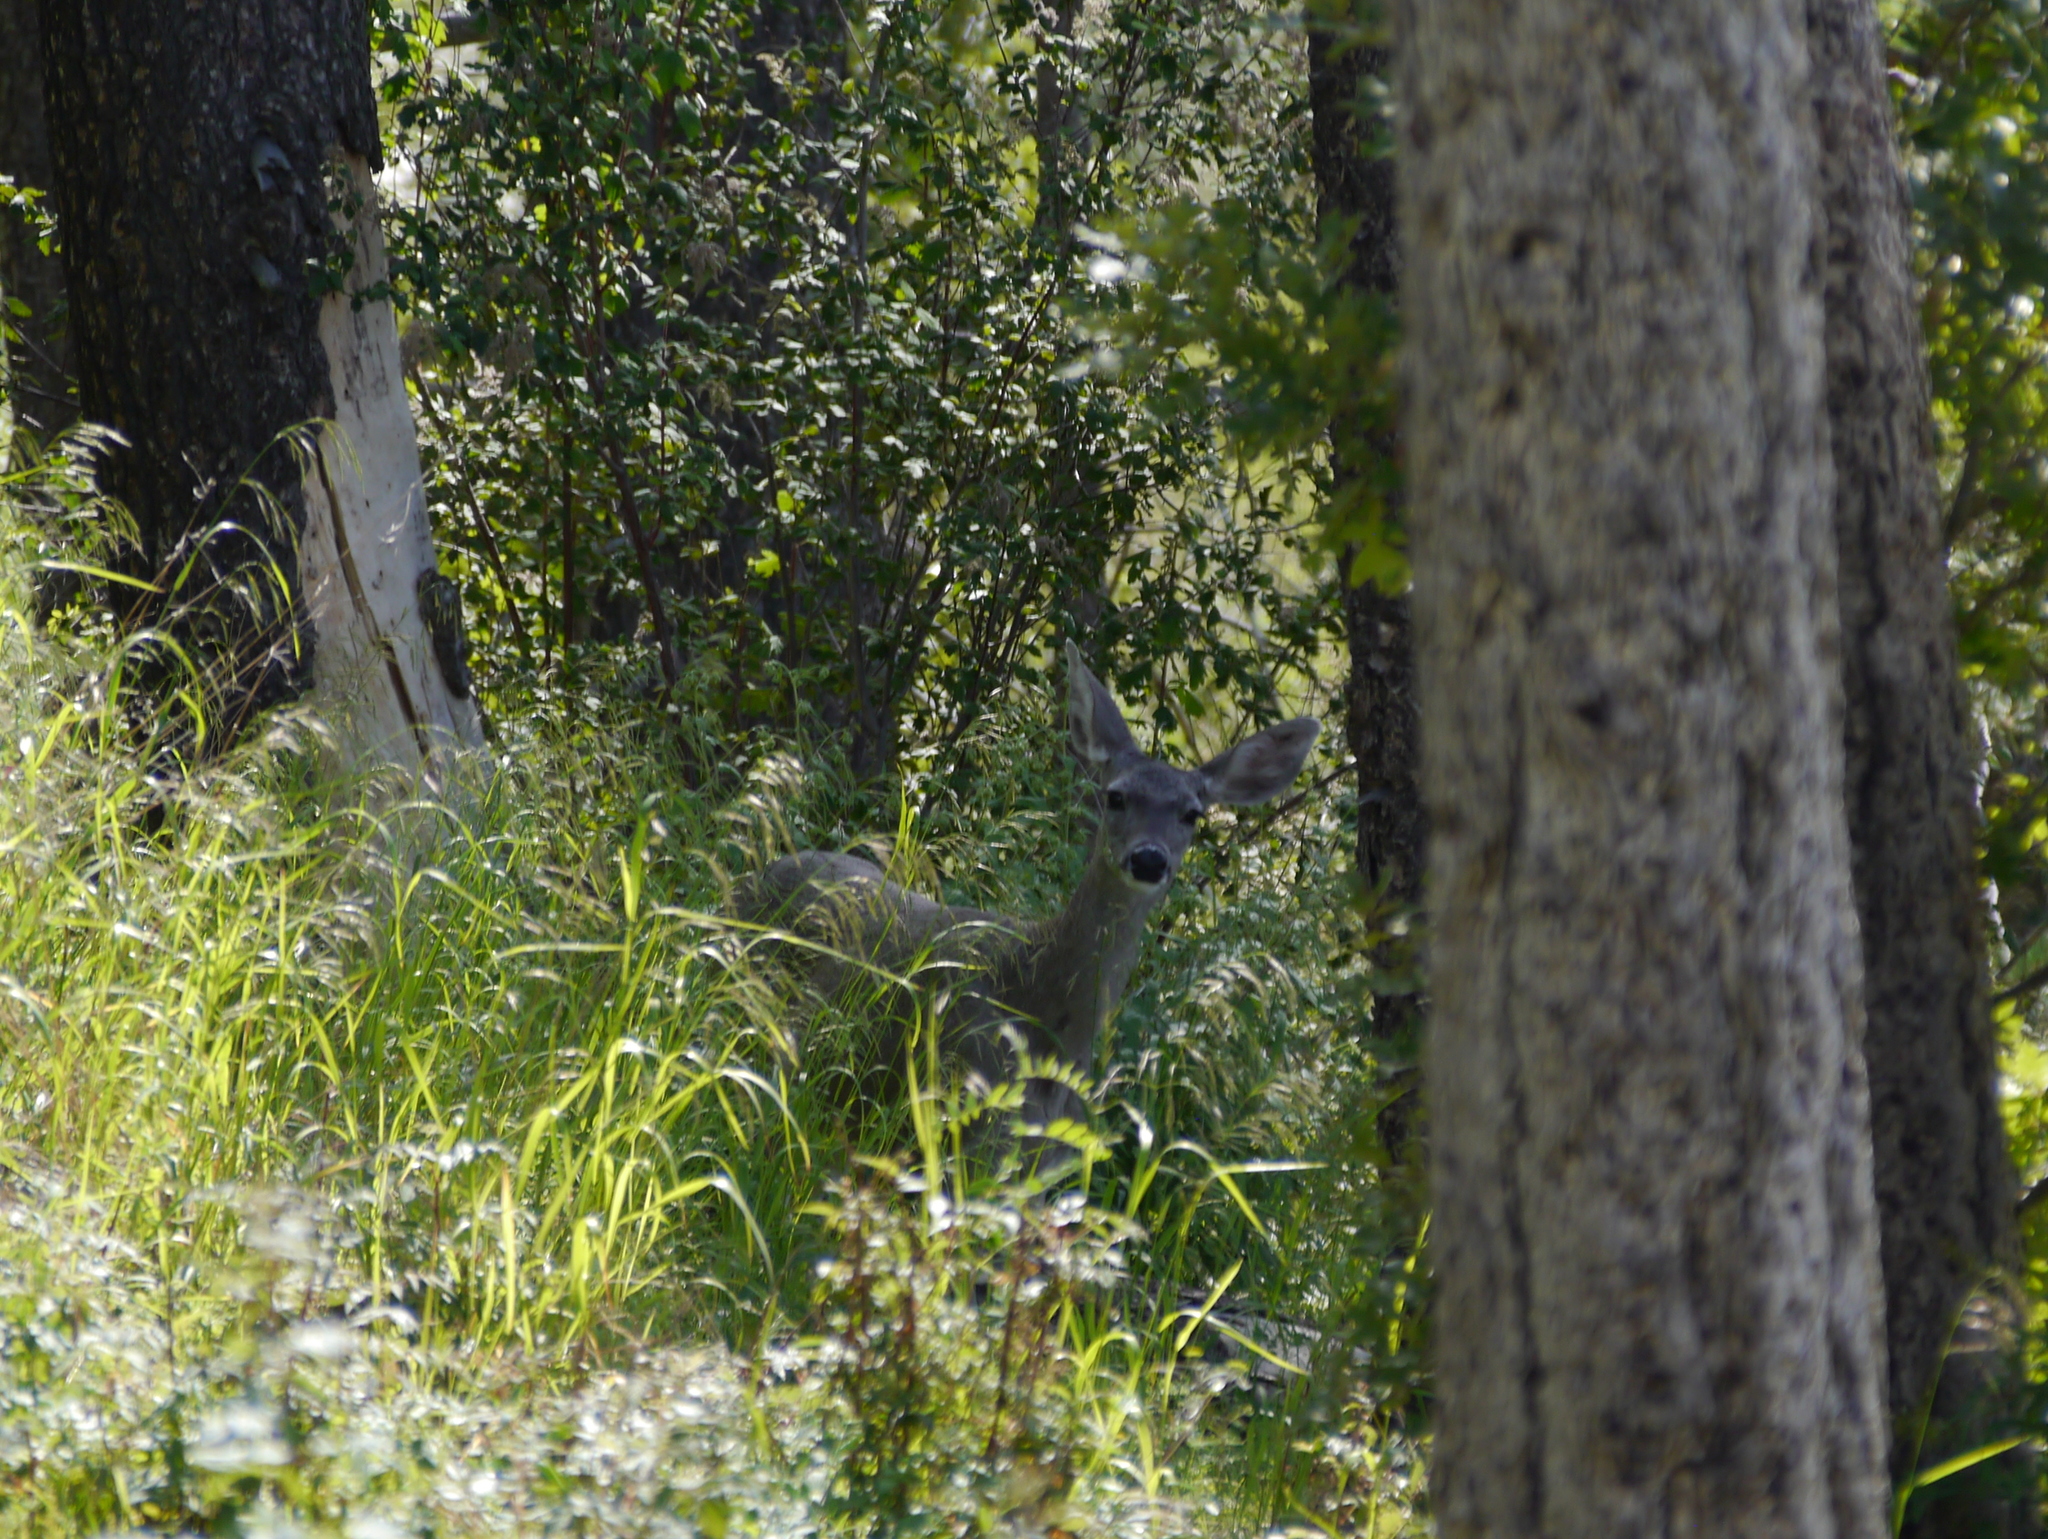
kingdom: Animalia
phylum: Chordata
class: Mammalia
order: Artiodactyla
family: Cervidae
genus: Odocoileus
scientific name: Odocoileus virginianus
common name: White-tailed deer
